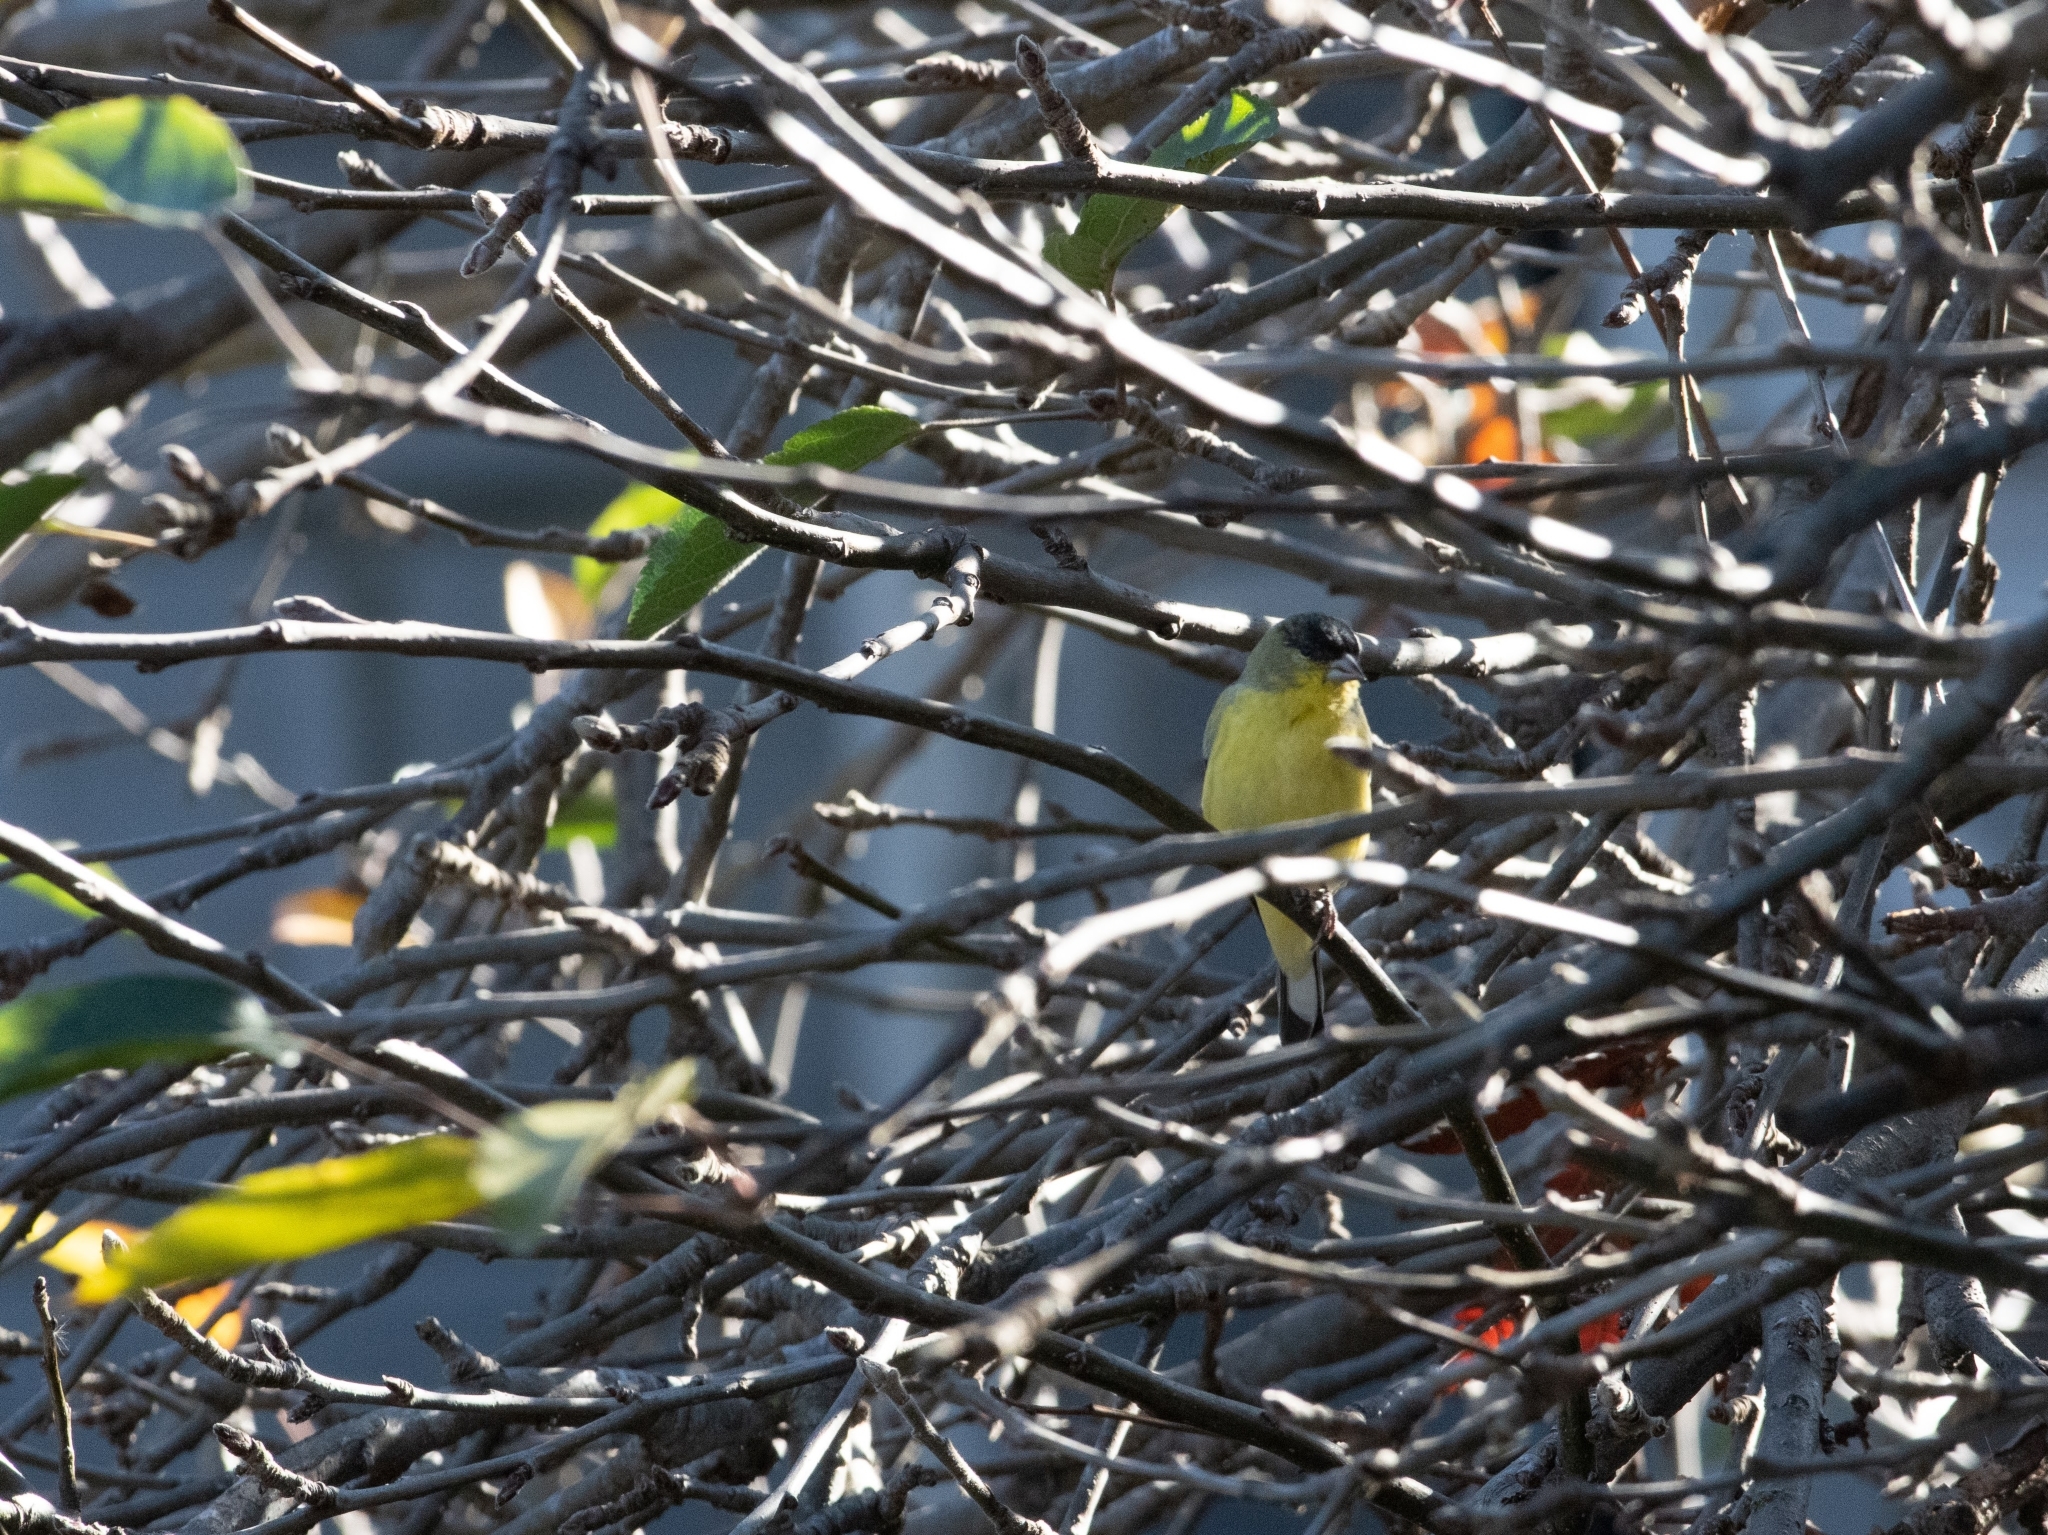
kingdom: Animalia
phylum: Chordata
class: Aves
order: Passeriformes
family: Fringillidae
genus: Spinus
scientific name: Spinus psaltria
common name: Lesser goldfinch
